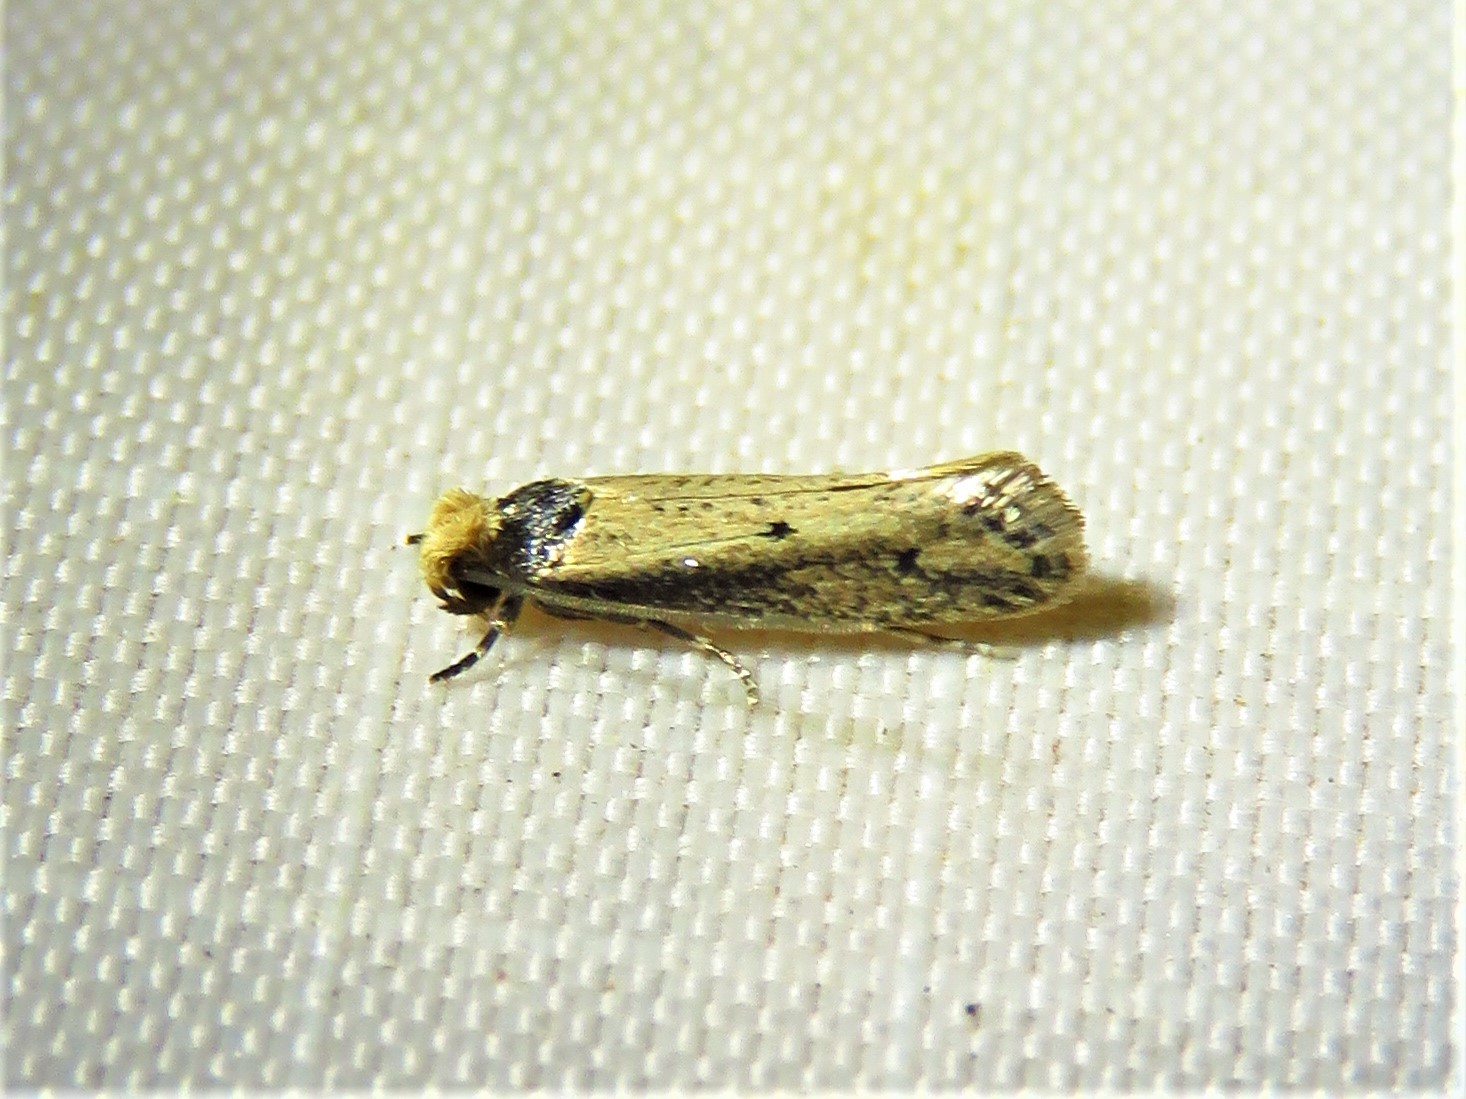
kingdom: Animalia
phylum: Arthropoda
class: Insecta
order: Lepidoptera
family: Tineidae
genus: Tinea
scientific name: Tinea apicimaculella
